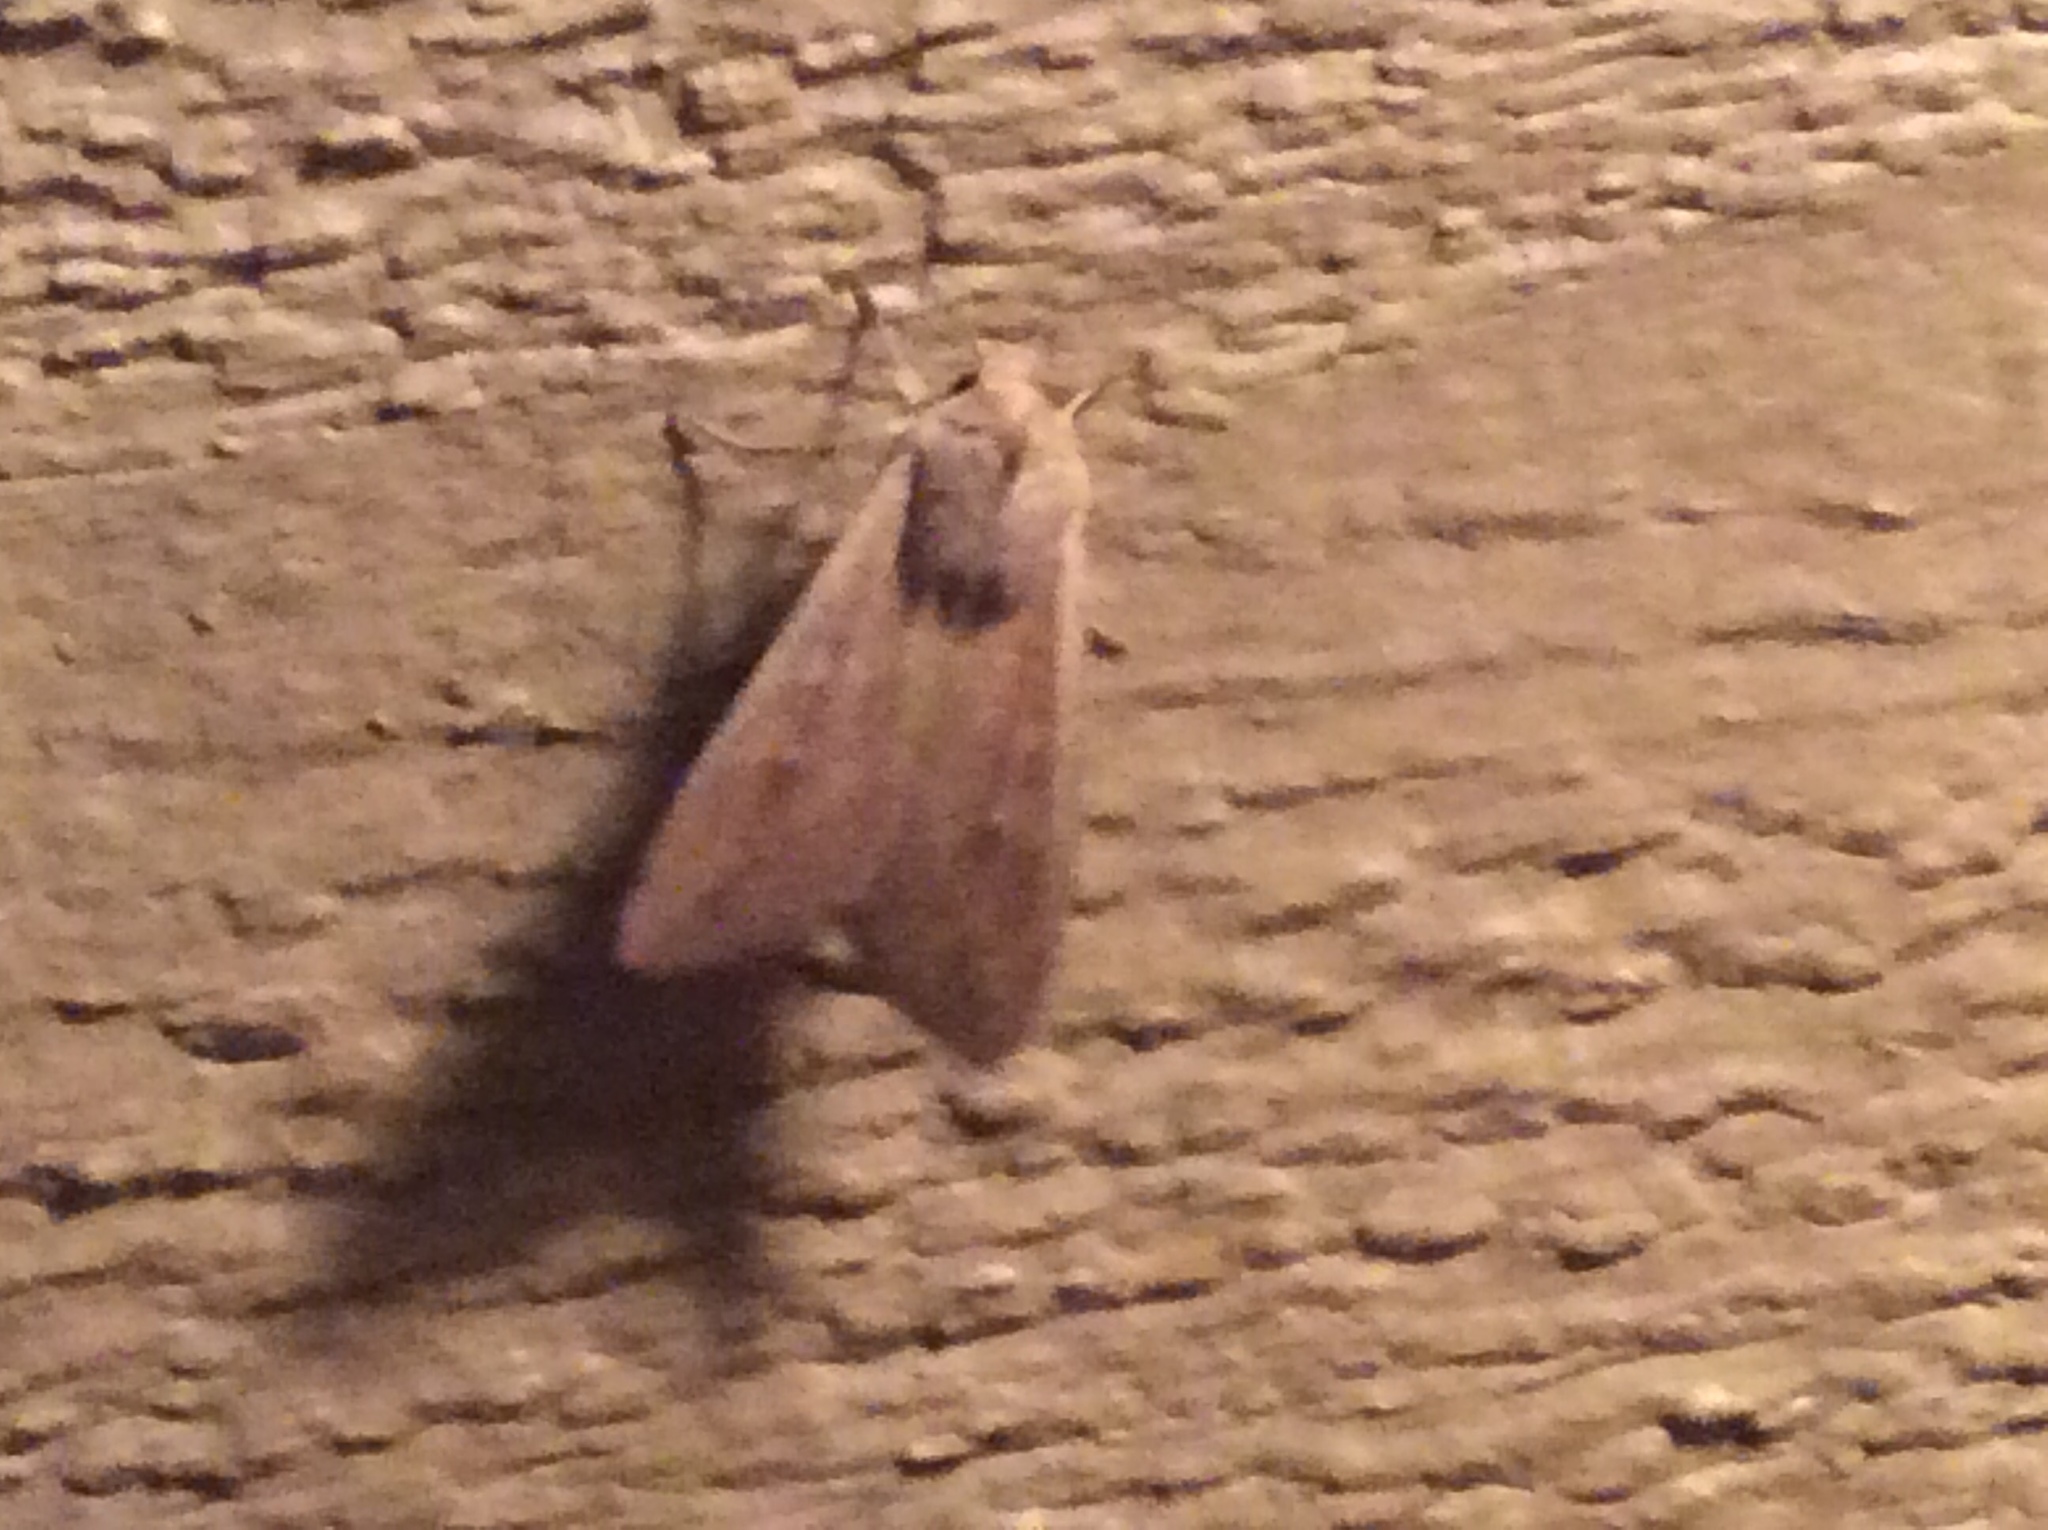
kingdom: Animalia
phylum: Arthropoda
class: Insecta
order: Lepidoptera
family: Noctuidae
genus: Mythimna
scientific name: Mythimna unipuncta
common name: White-speck
